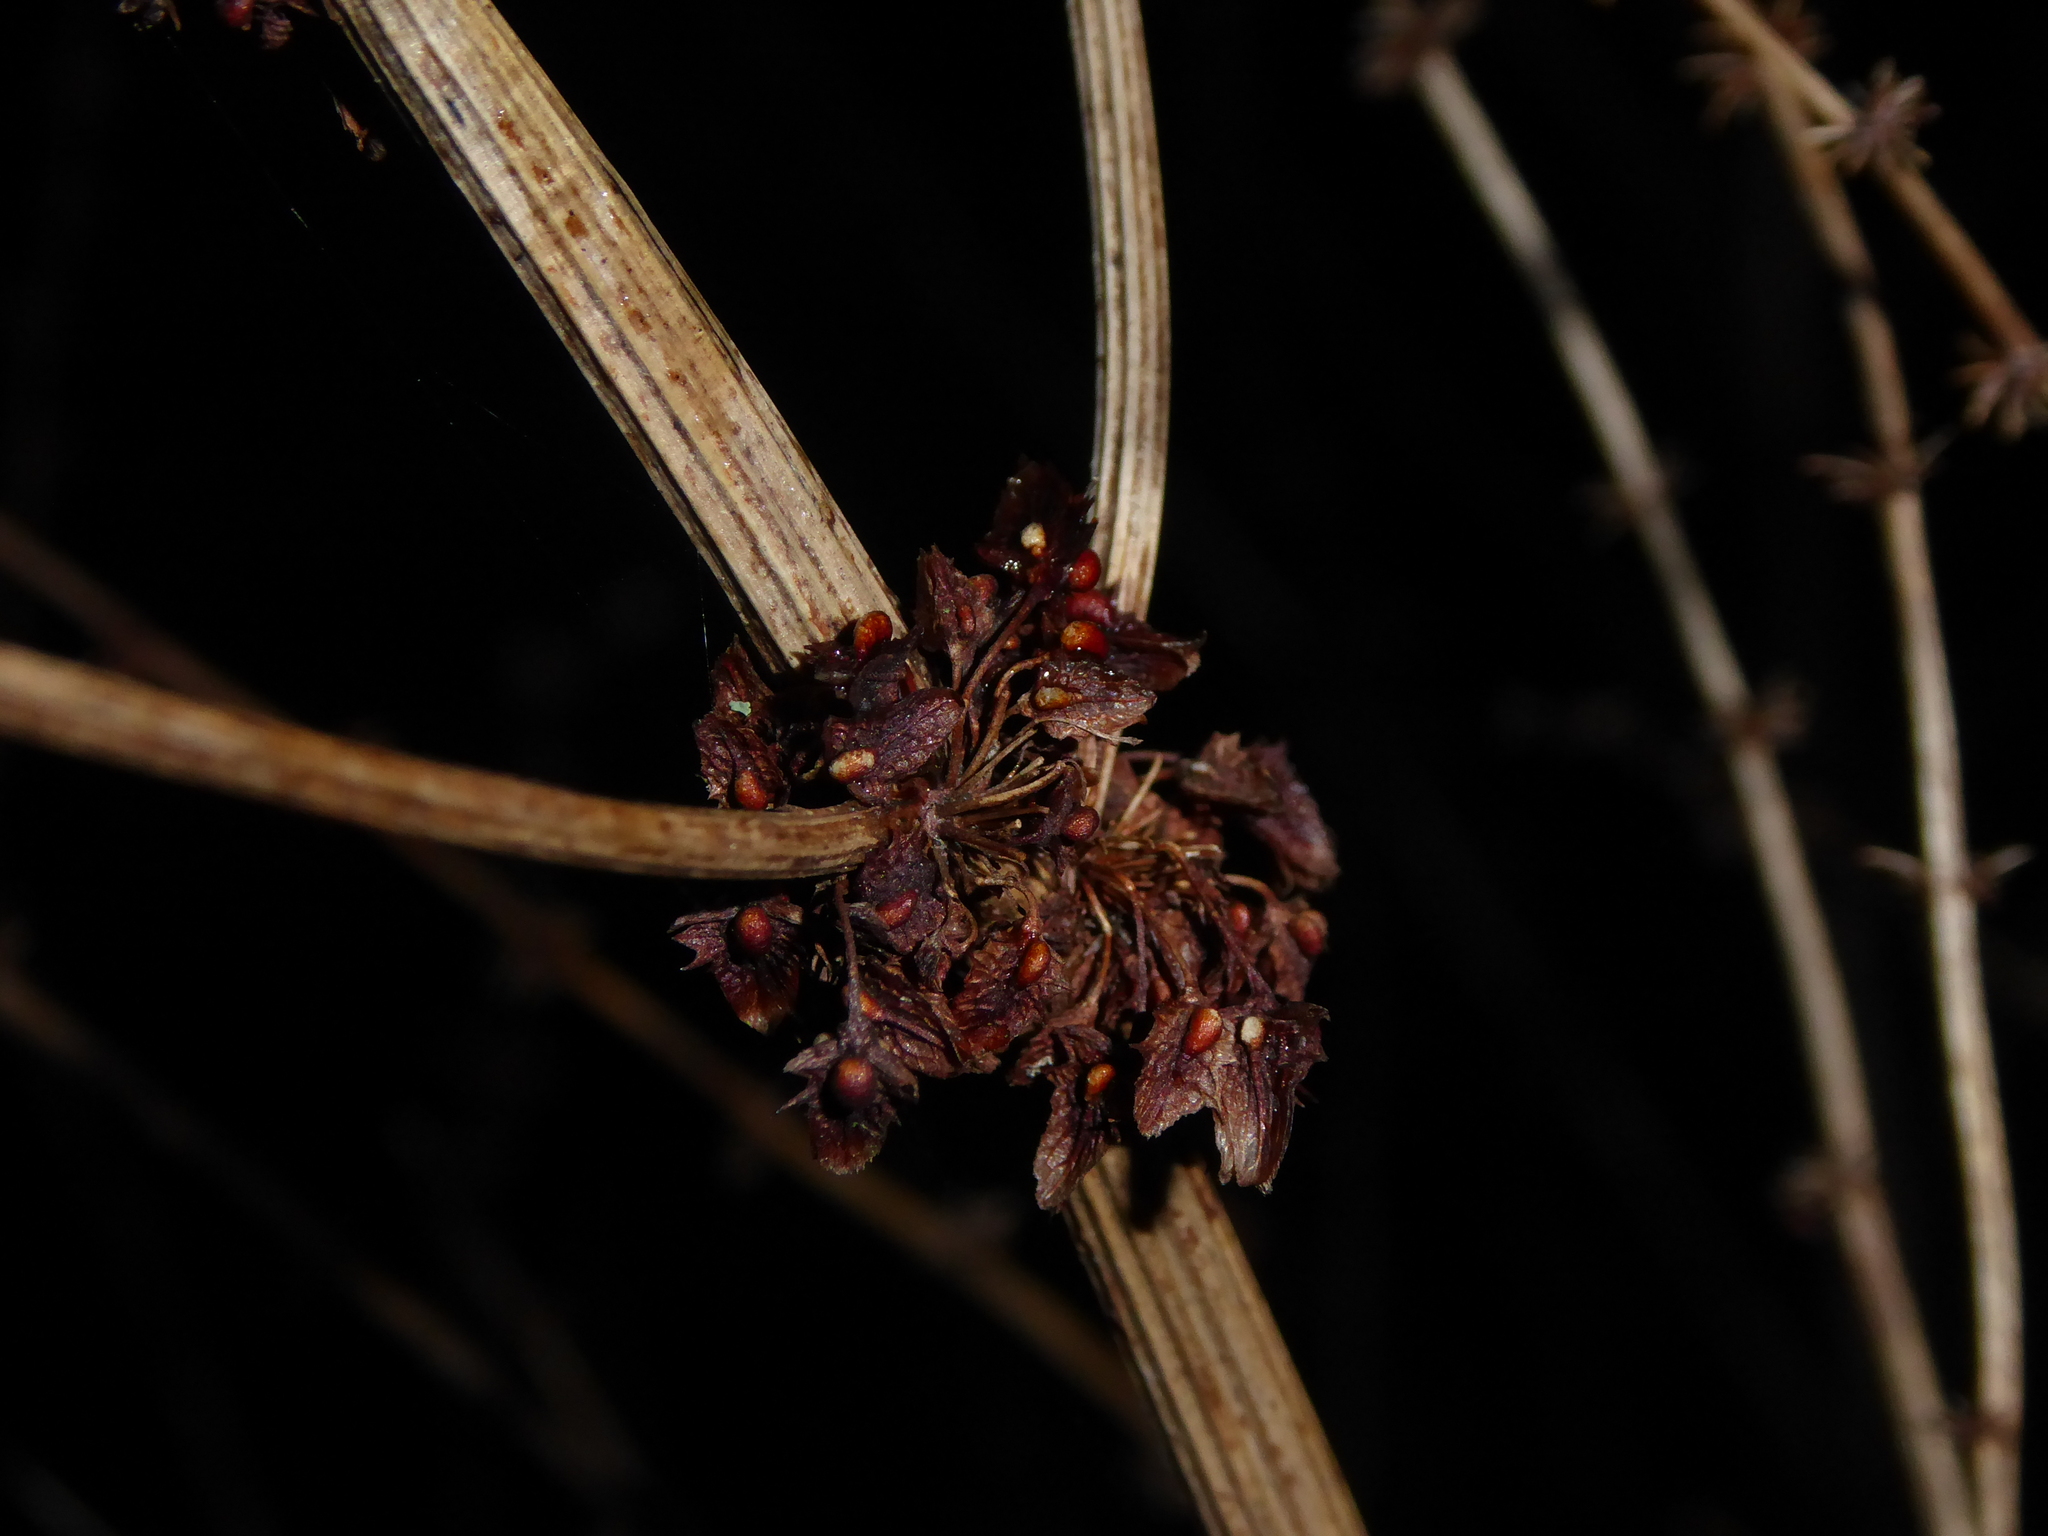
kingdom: Plantae
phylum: Tracheophyta
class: Magnoliopsida
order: Caryophyllales
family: Polygonaceae
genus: Rumex
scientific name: Rumex obtusifolius
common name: Bitter dock
